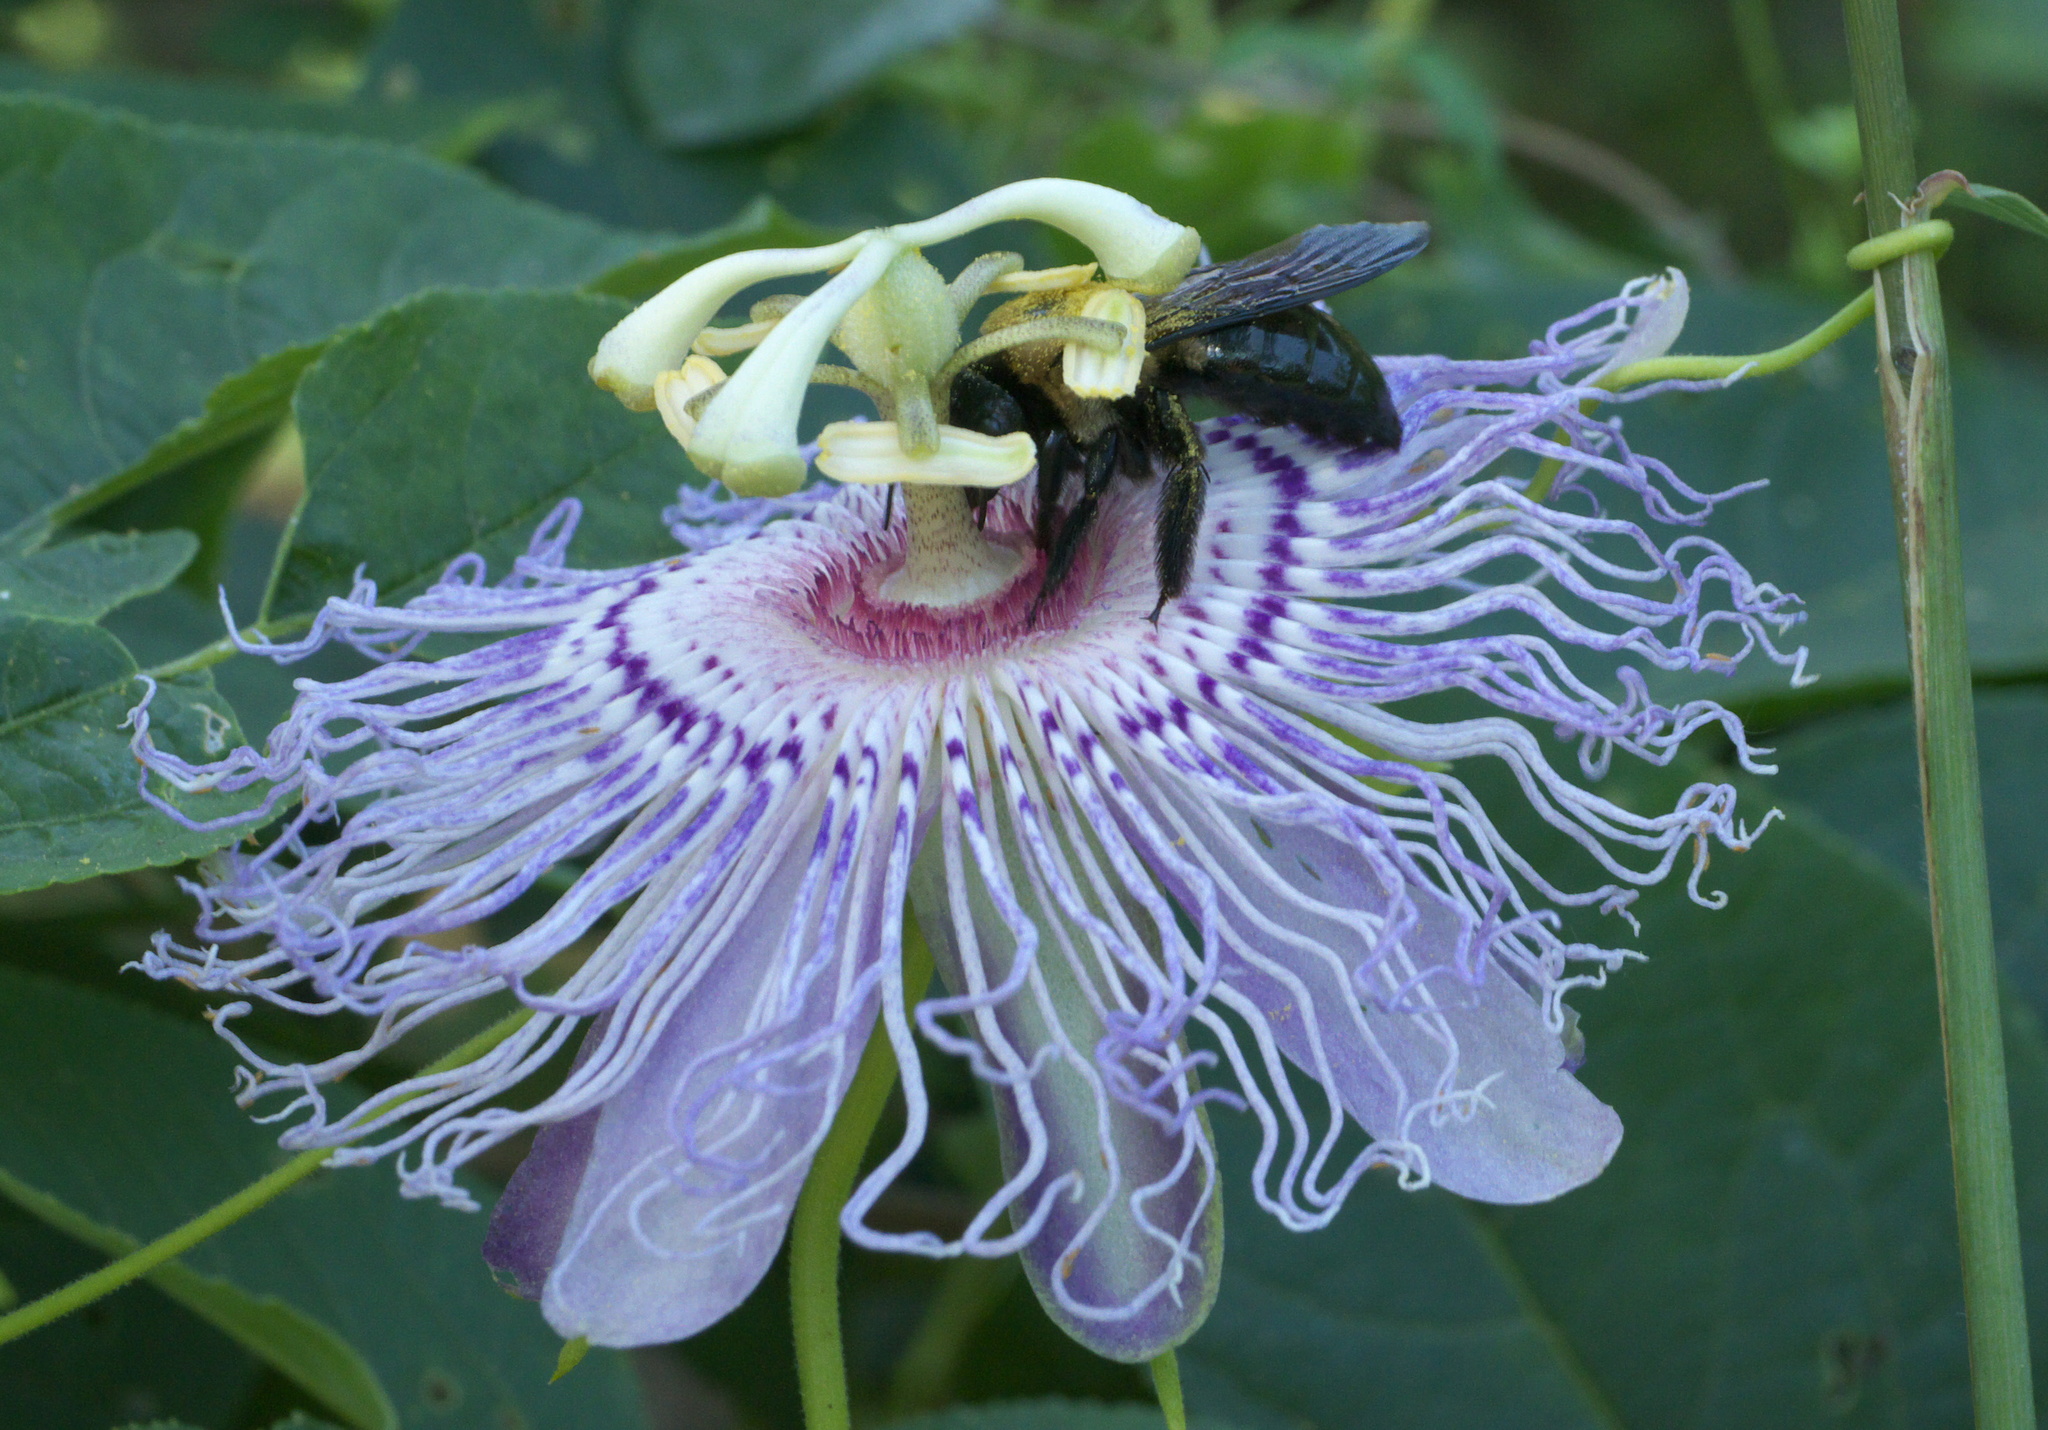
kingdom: Animalia
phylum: Arthropoda
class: Insecta
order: Hymenoptera
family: Apidae
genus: Xylocopa
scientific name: Xylocopa virginica
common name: Carpenter bee
